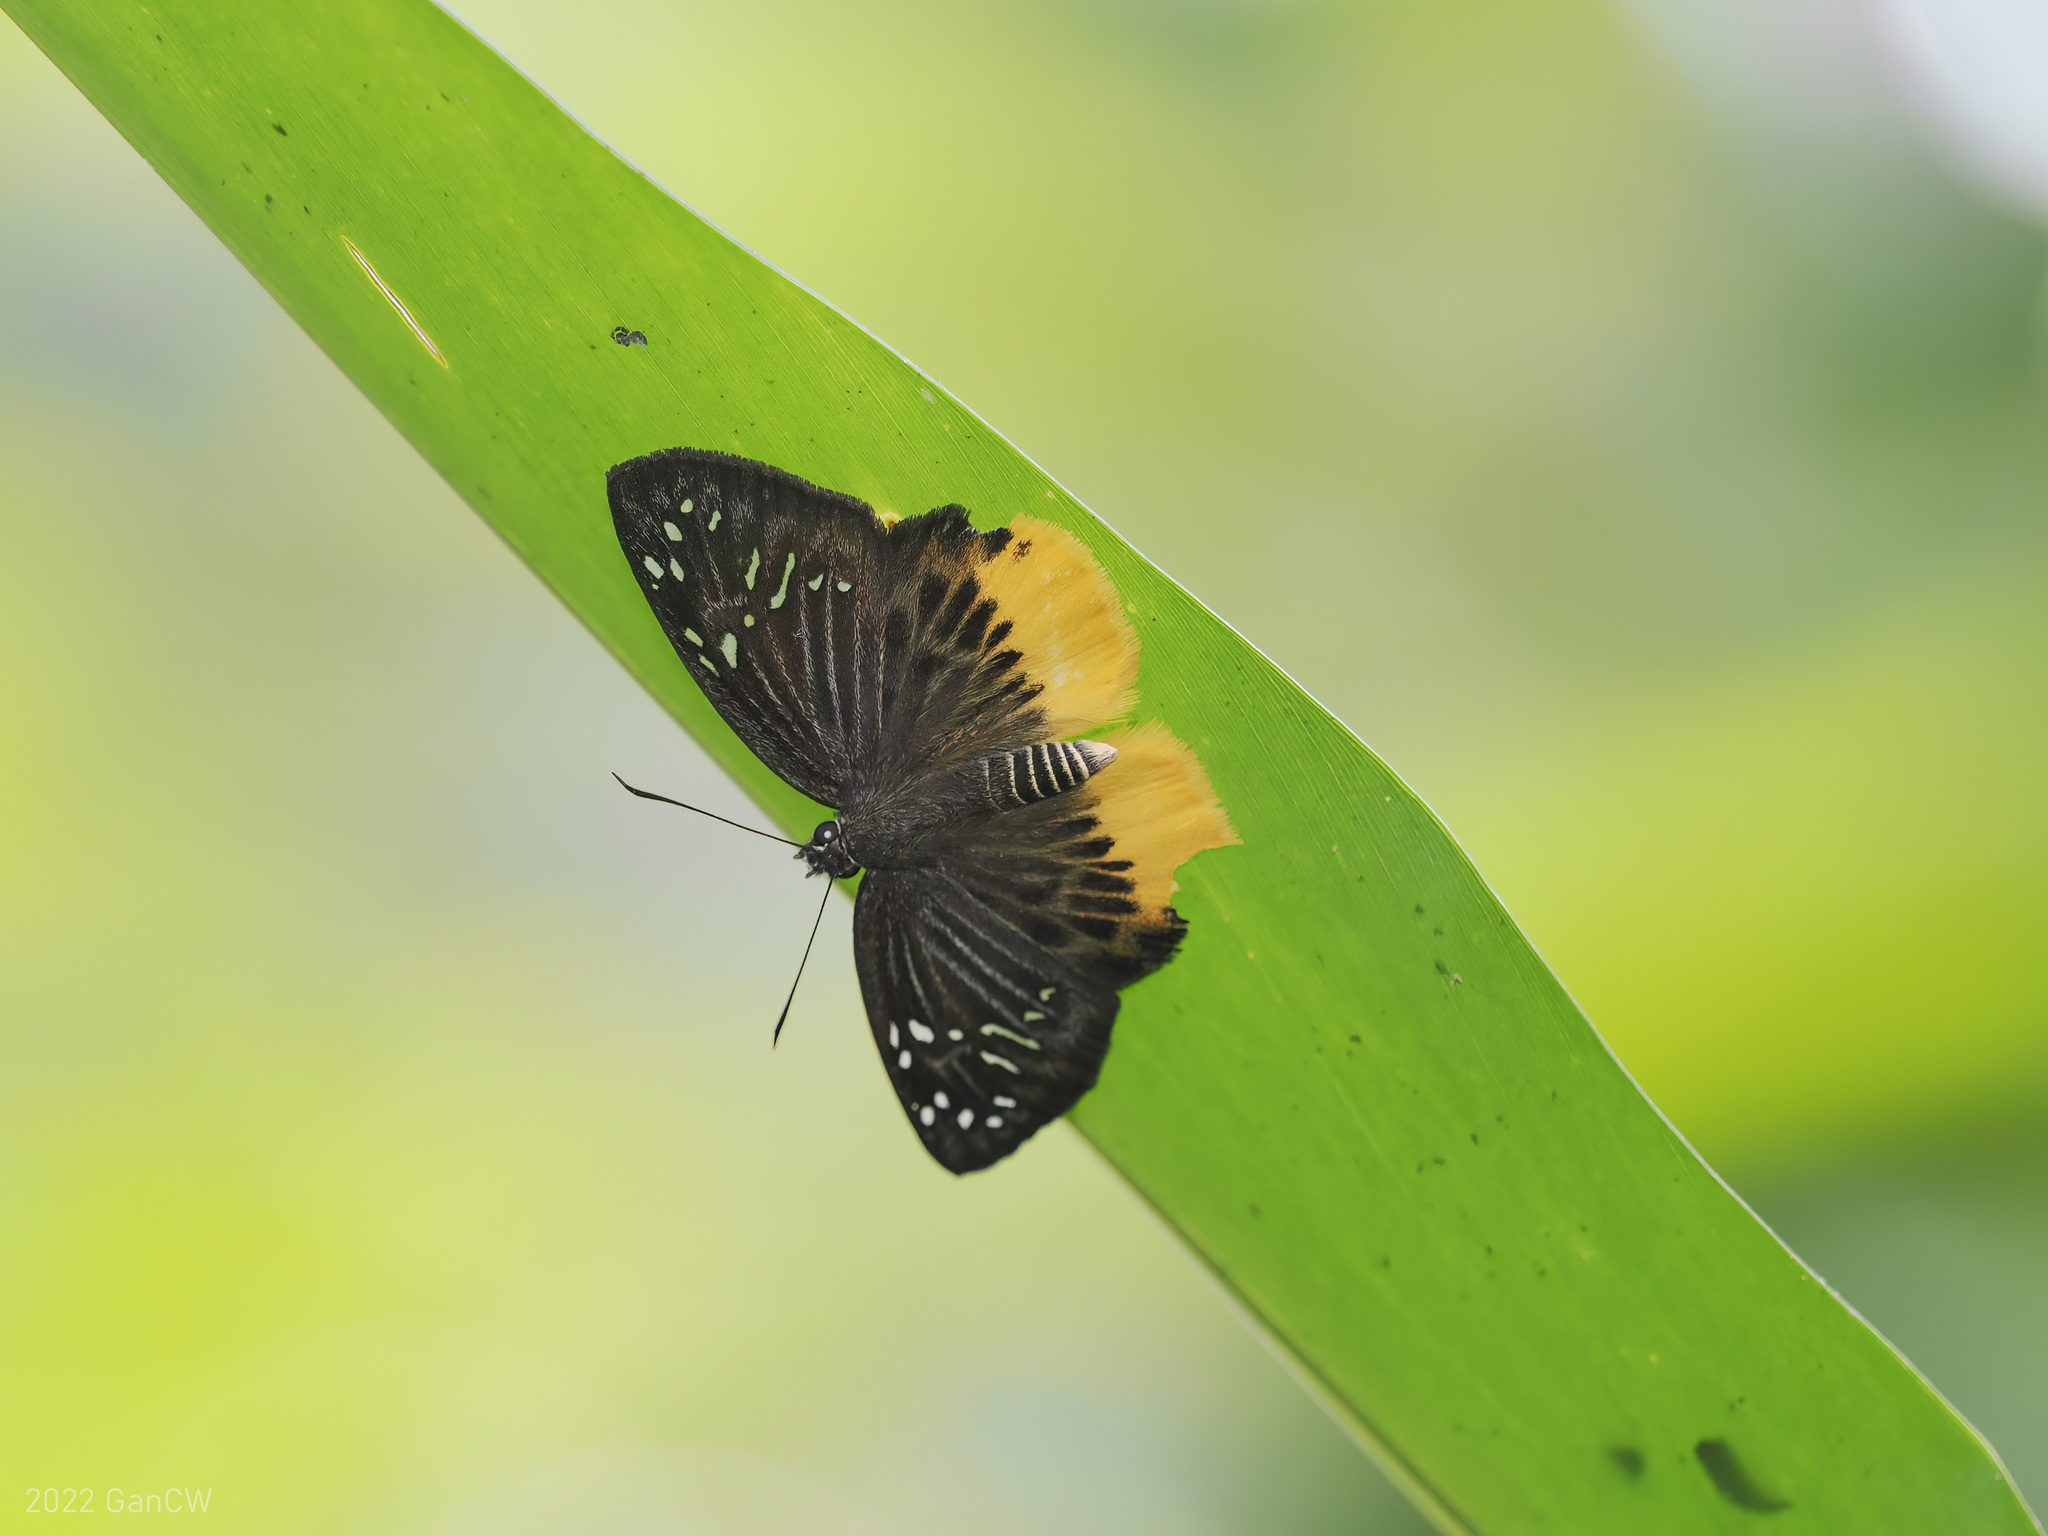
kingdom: Animalia
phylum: Arthropoda
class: Insecta
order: Lepidoptera
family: Hesperiidae
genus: Mooreana
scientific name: Mooreana trichoneura
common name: Yellow flat
